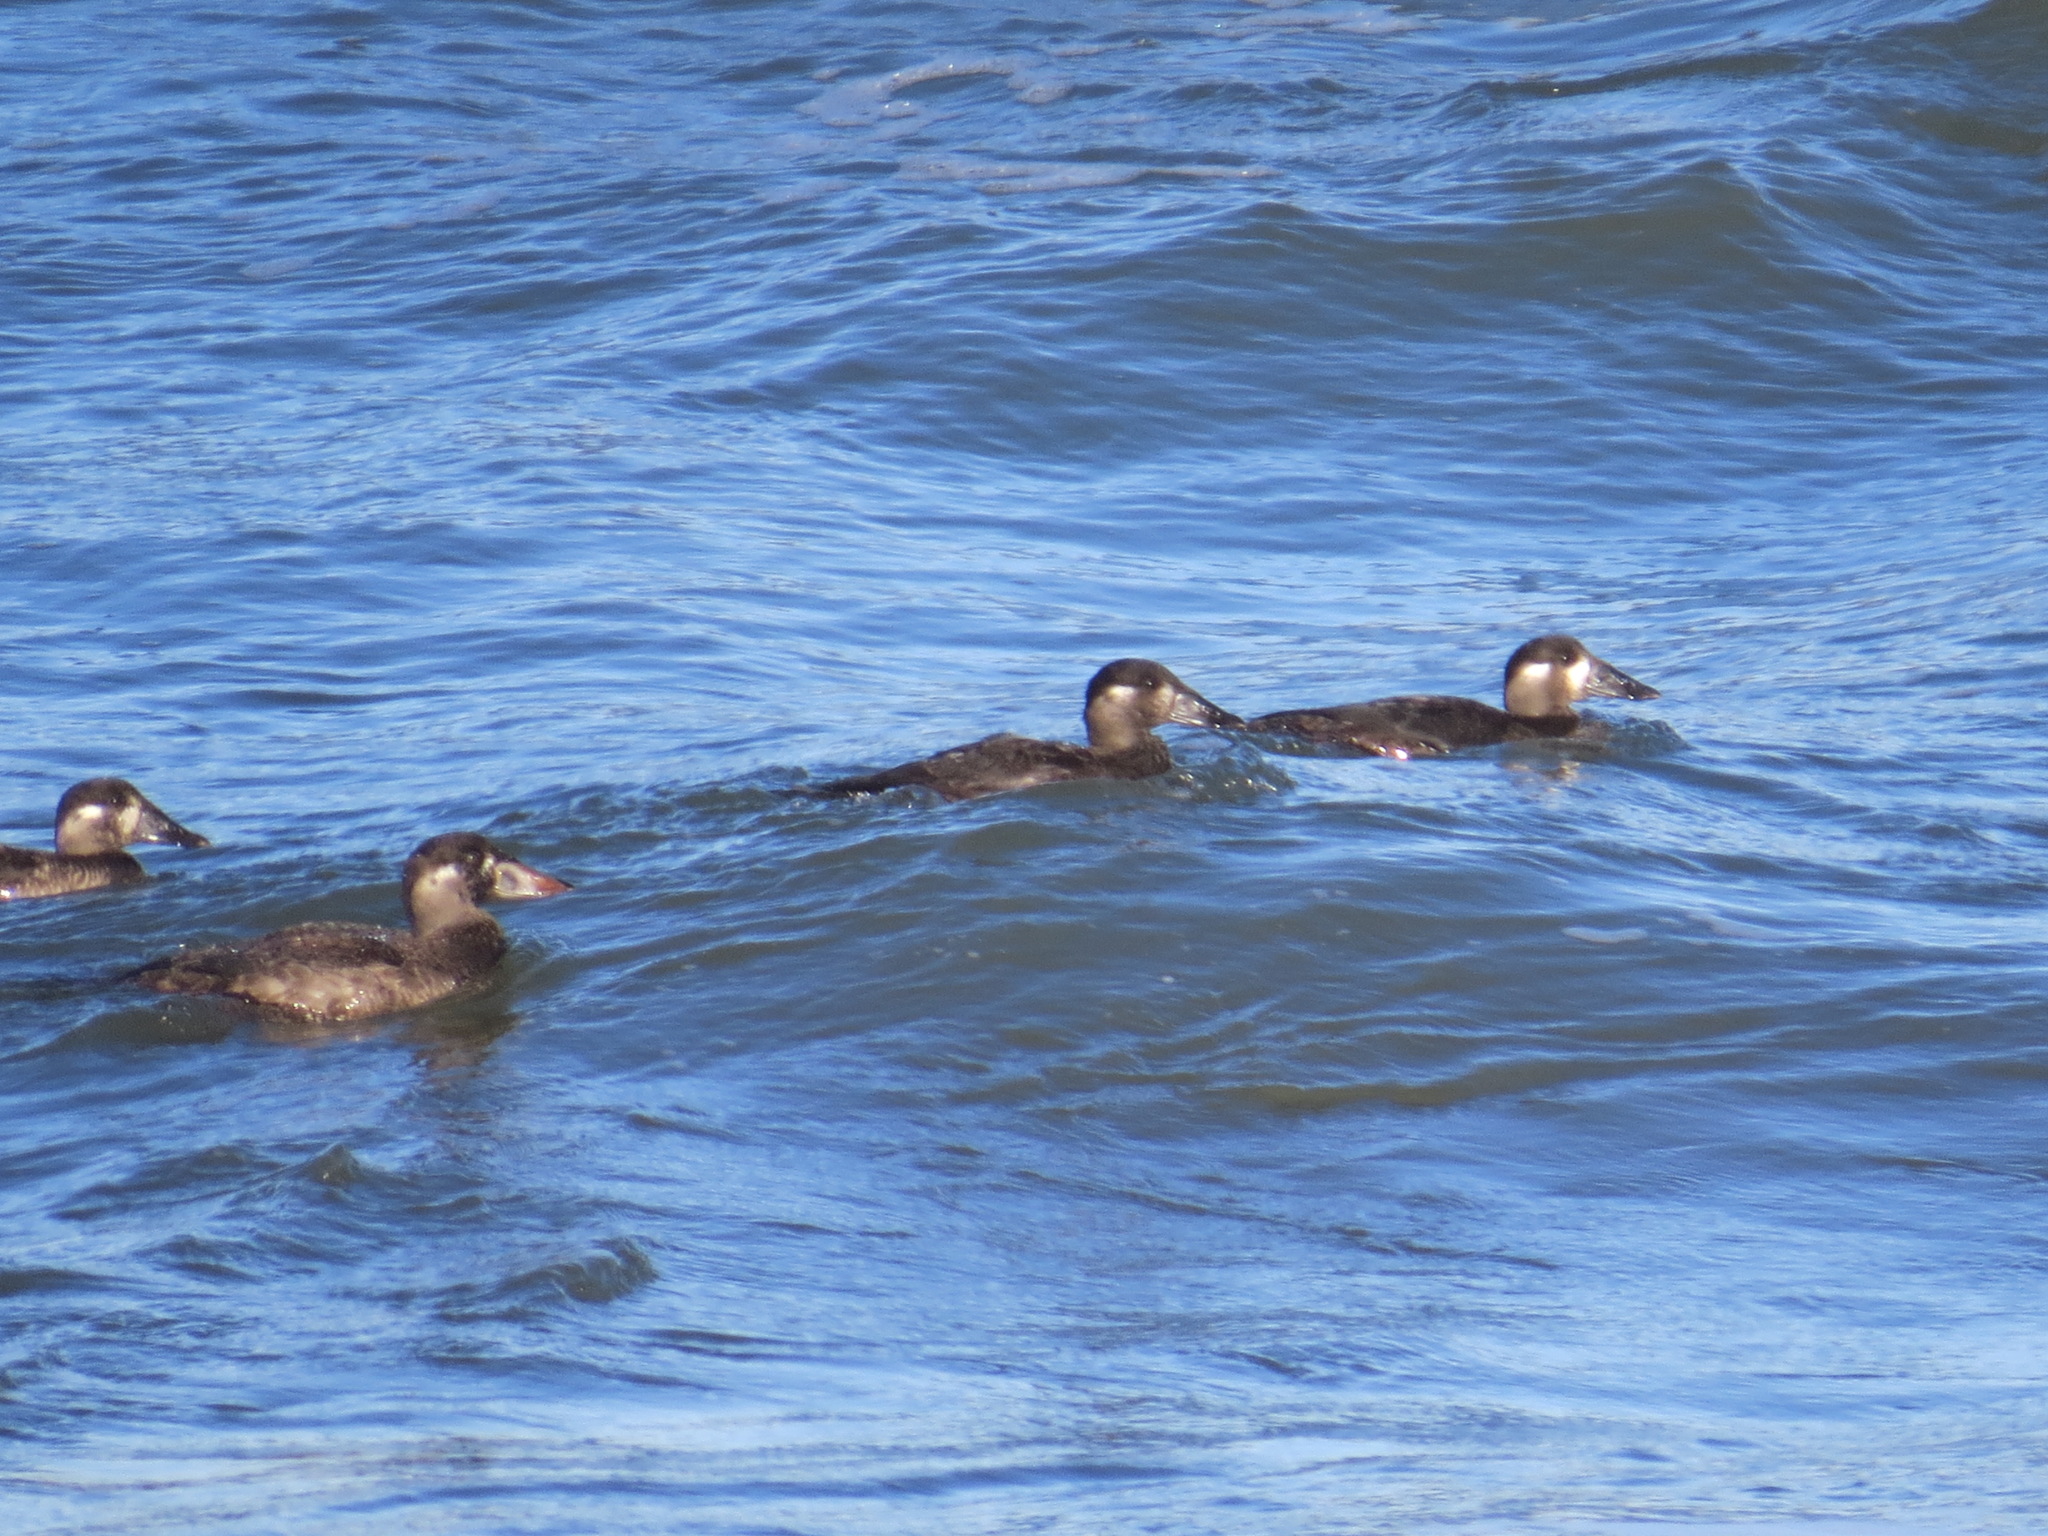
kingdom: Animalia
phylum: Chordata
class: Aves
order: Anseriformes
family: Anatidae
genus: Melanitta
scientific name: Melanitta perspicillata
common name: Surf scoter
